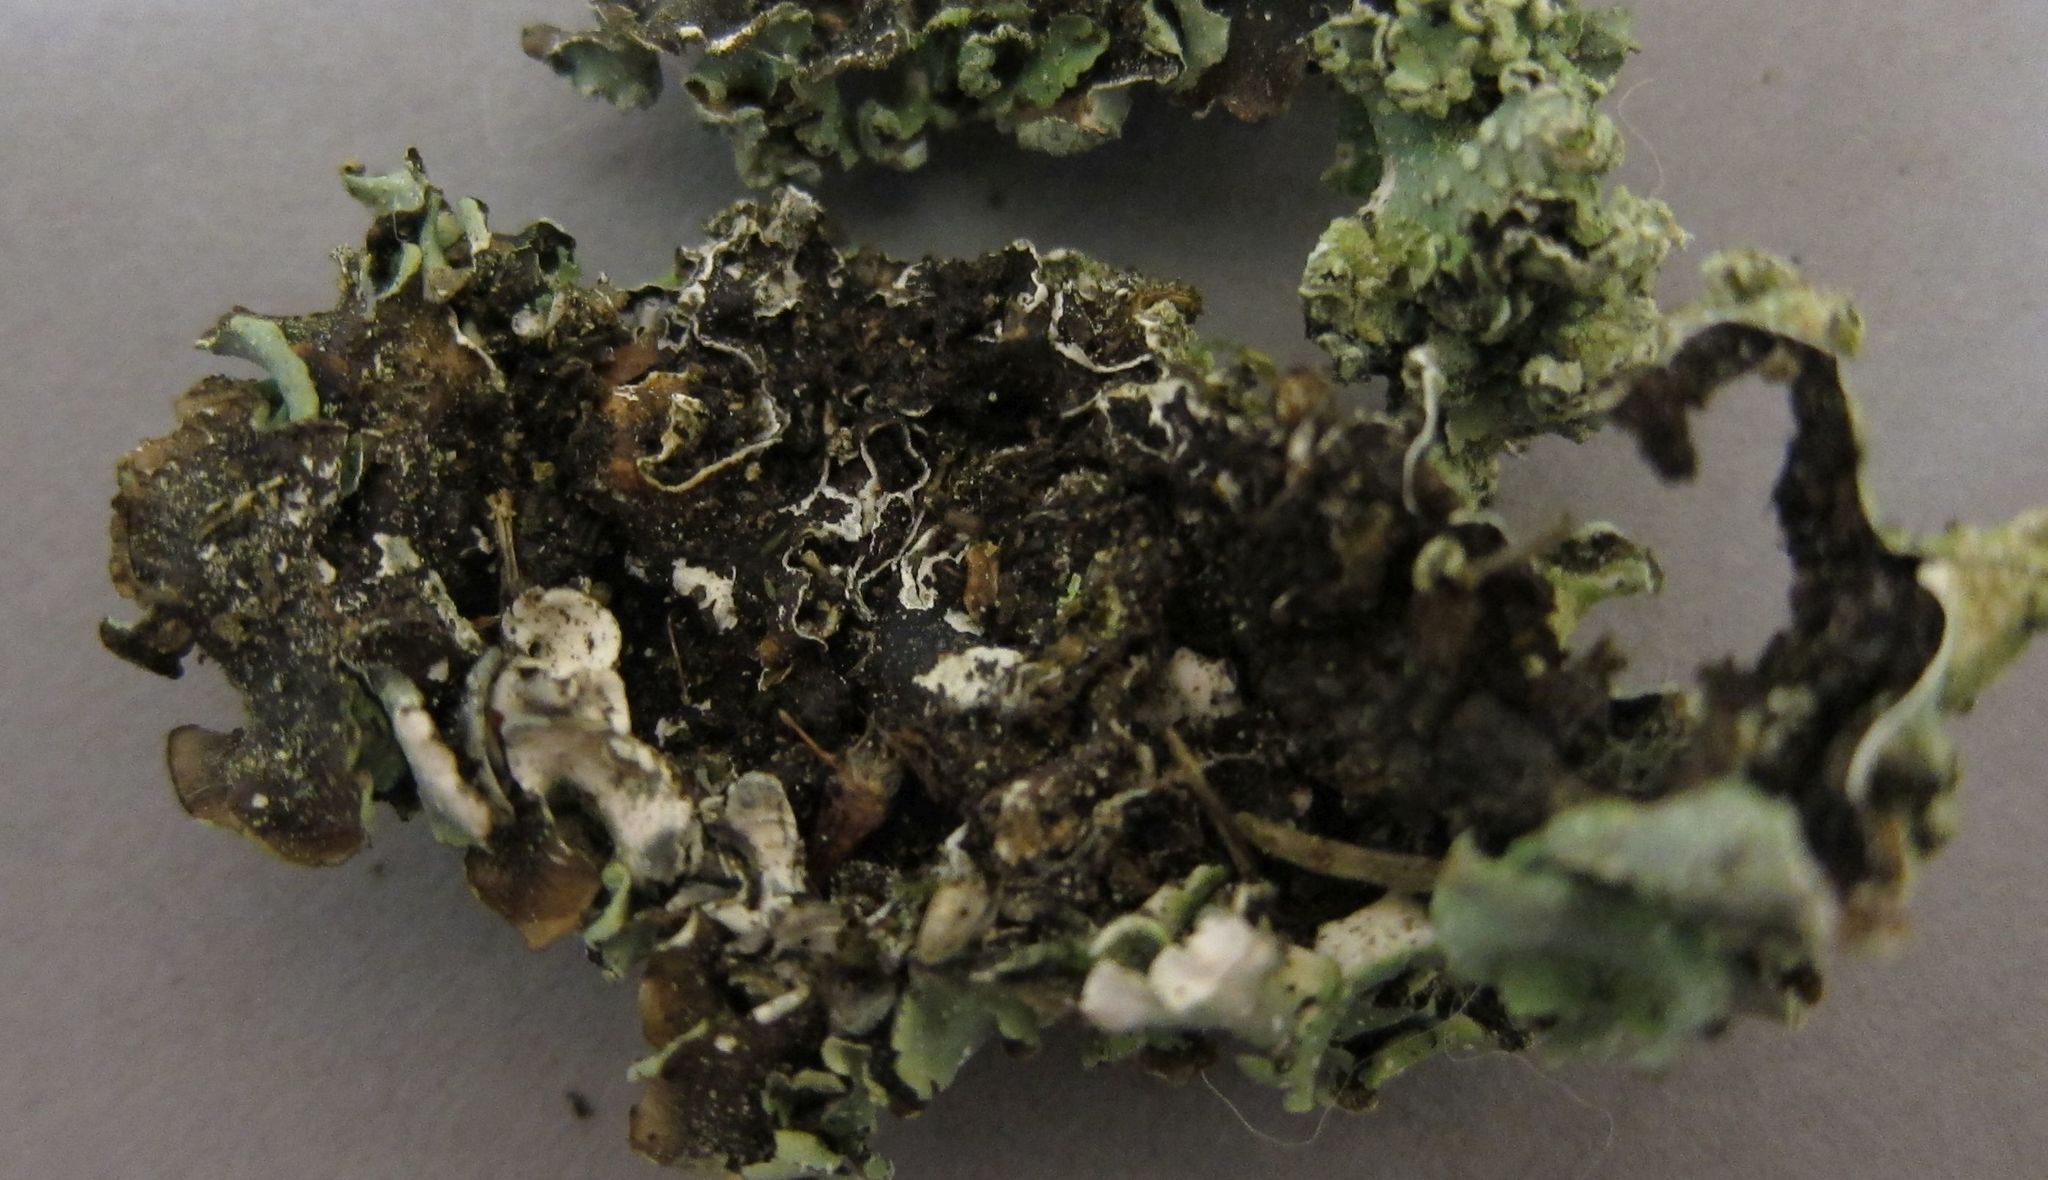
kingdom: Fungi
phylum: Ascomycota
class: Lecanoromycetes
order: Lecanorales
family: Parmeliaceae
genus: Punctelia
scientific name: Punctelia borreri
